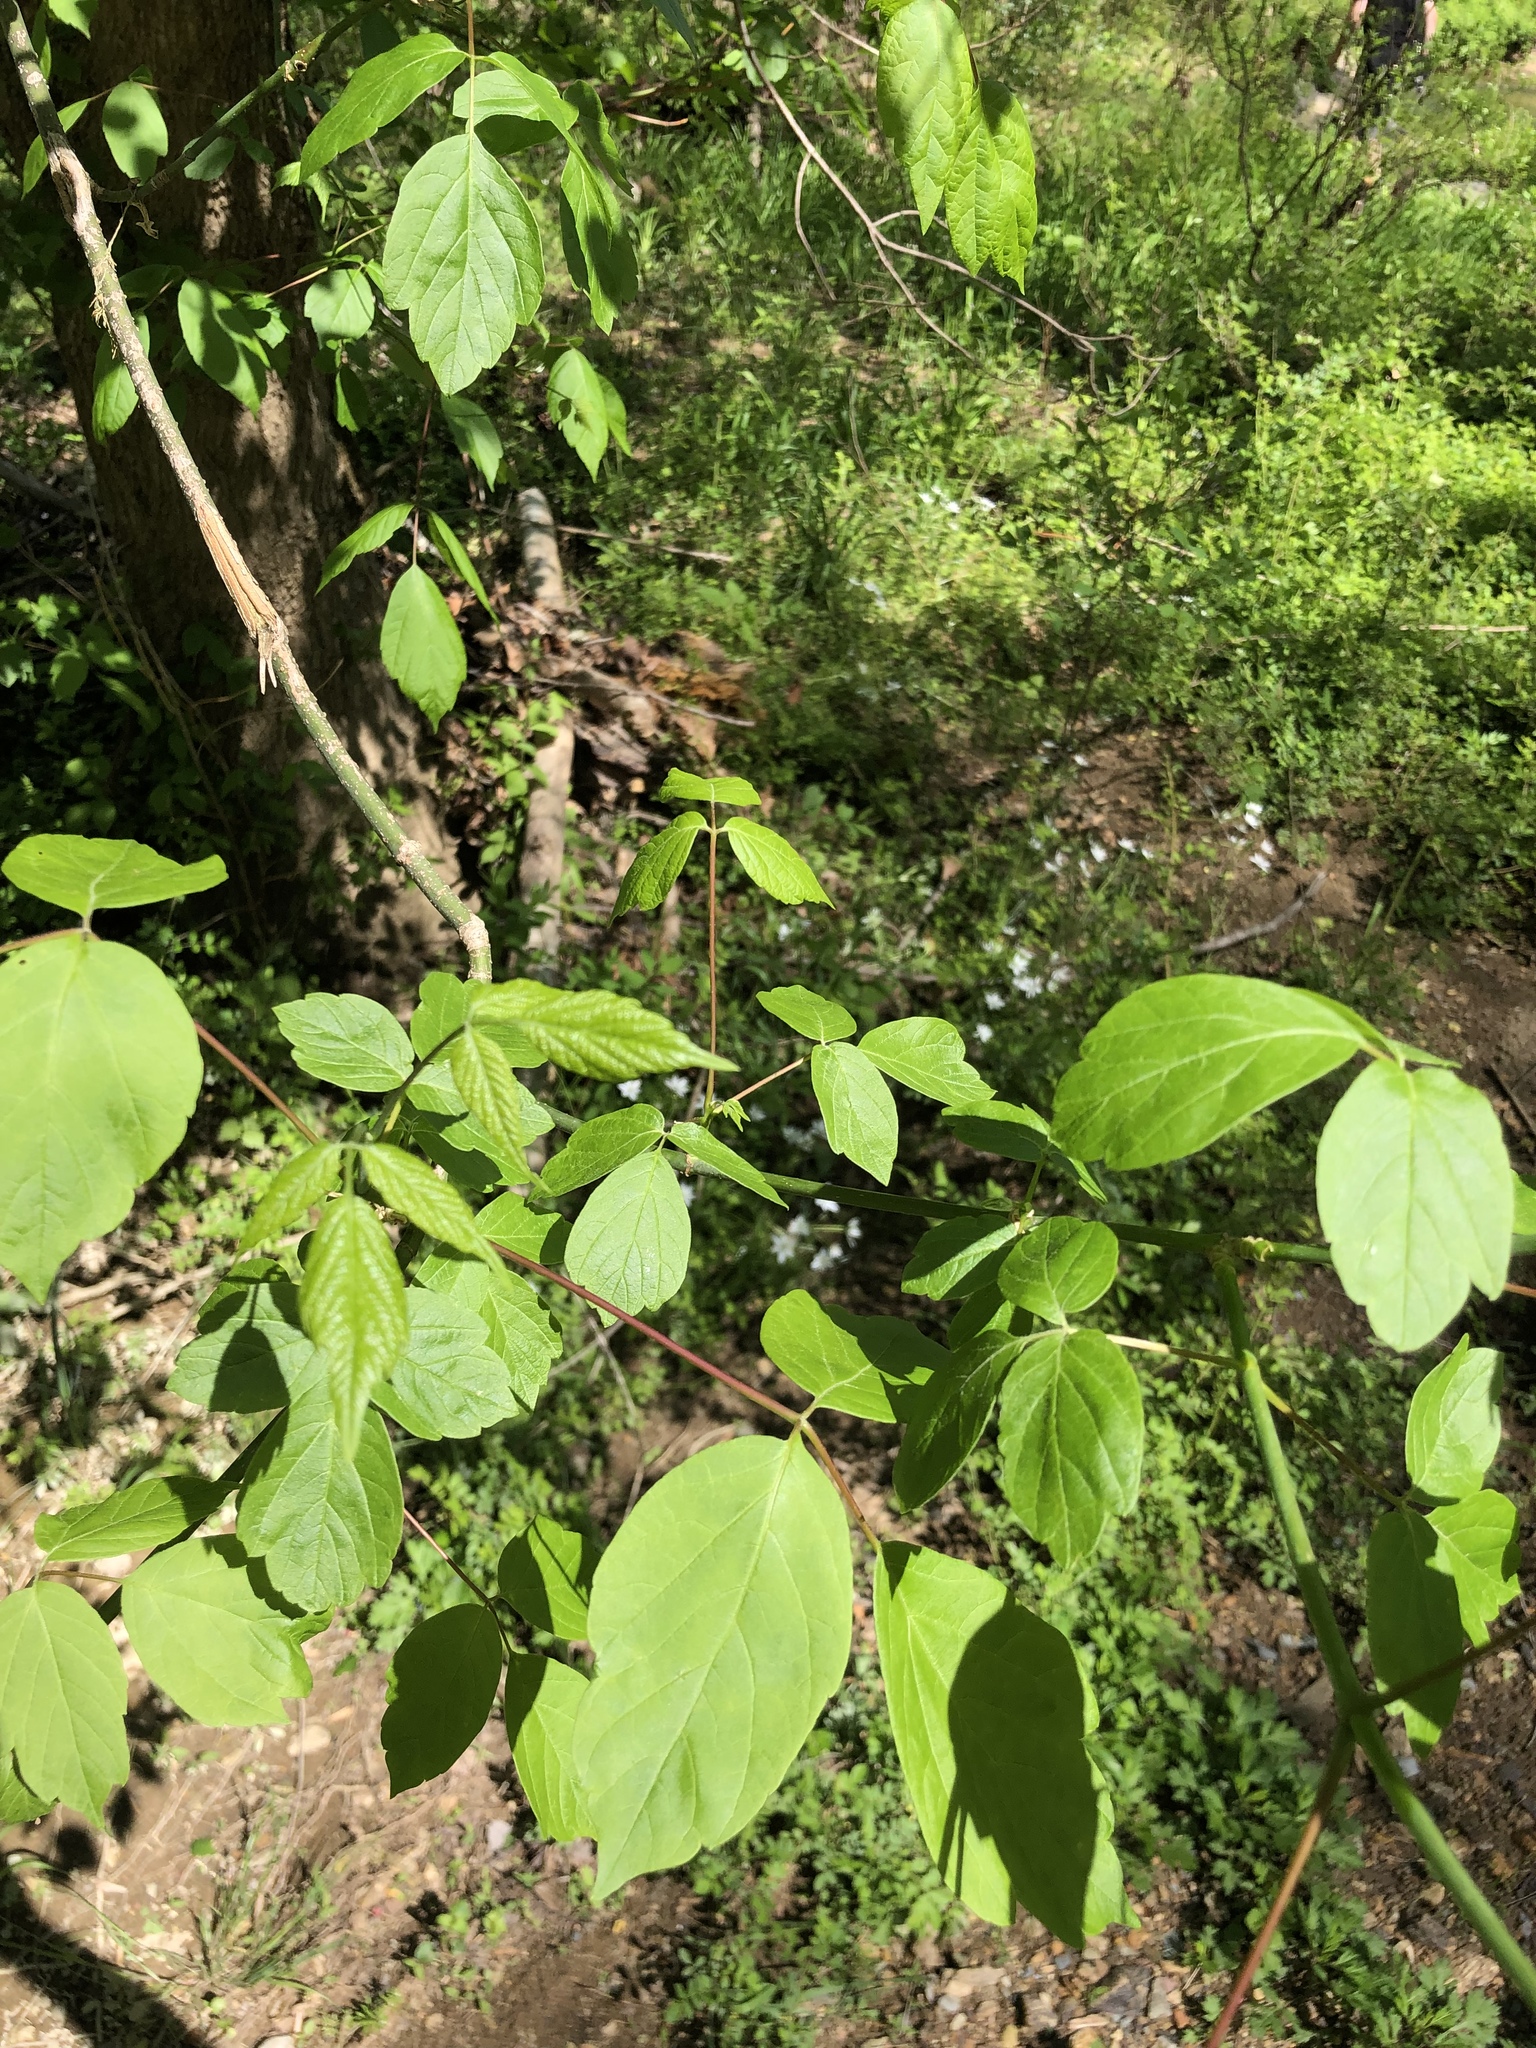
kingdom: Plantae
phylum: Tracheophyta
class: Magnoliopsida
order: Sapindales
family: Sapindaceae
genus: Acer
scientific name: Acer negundo
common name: Ashleaf maple
